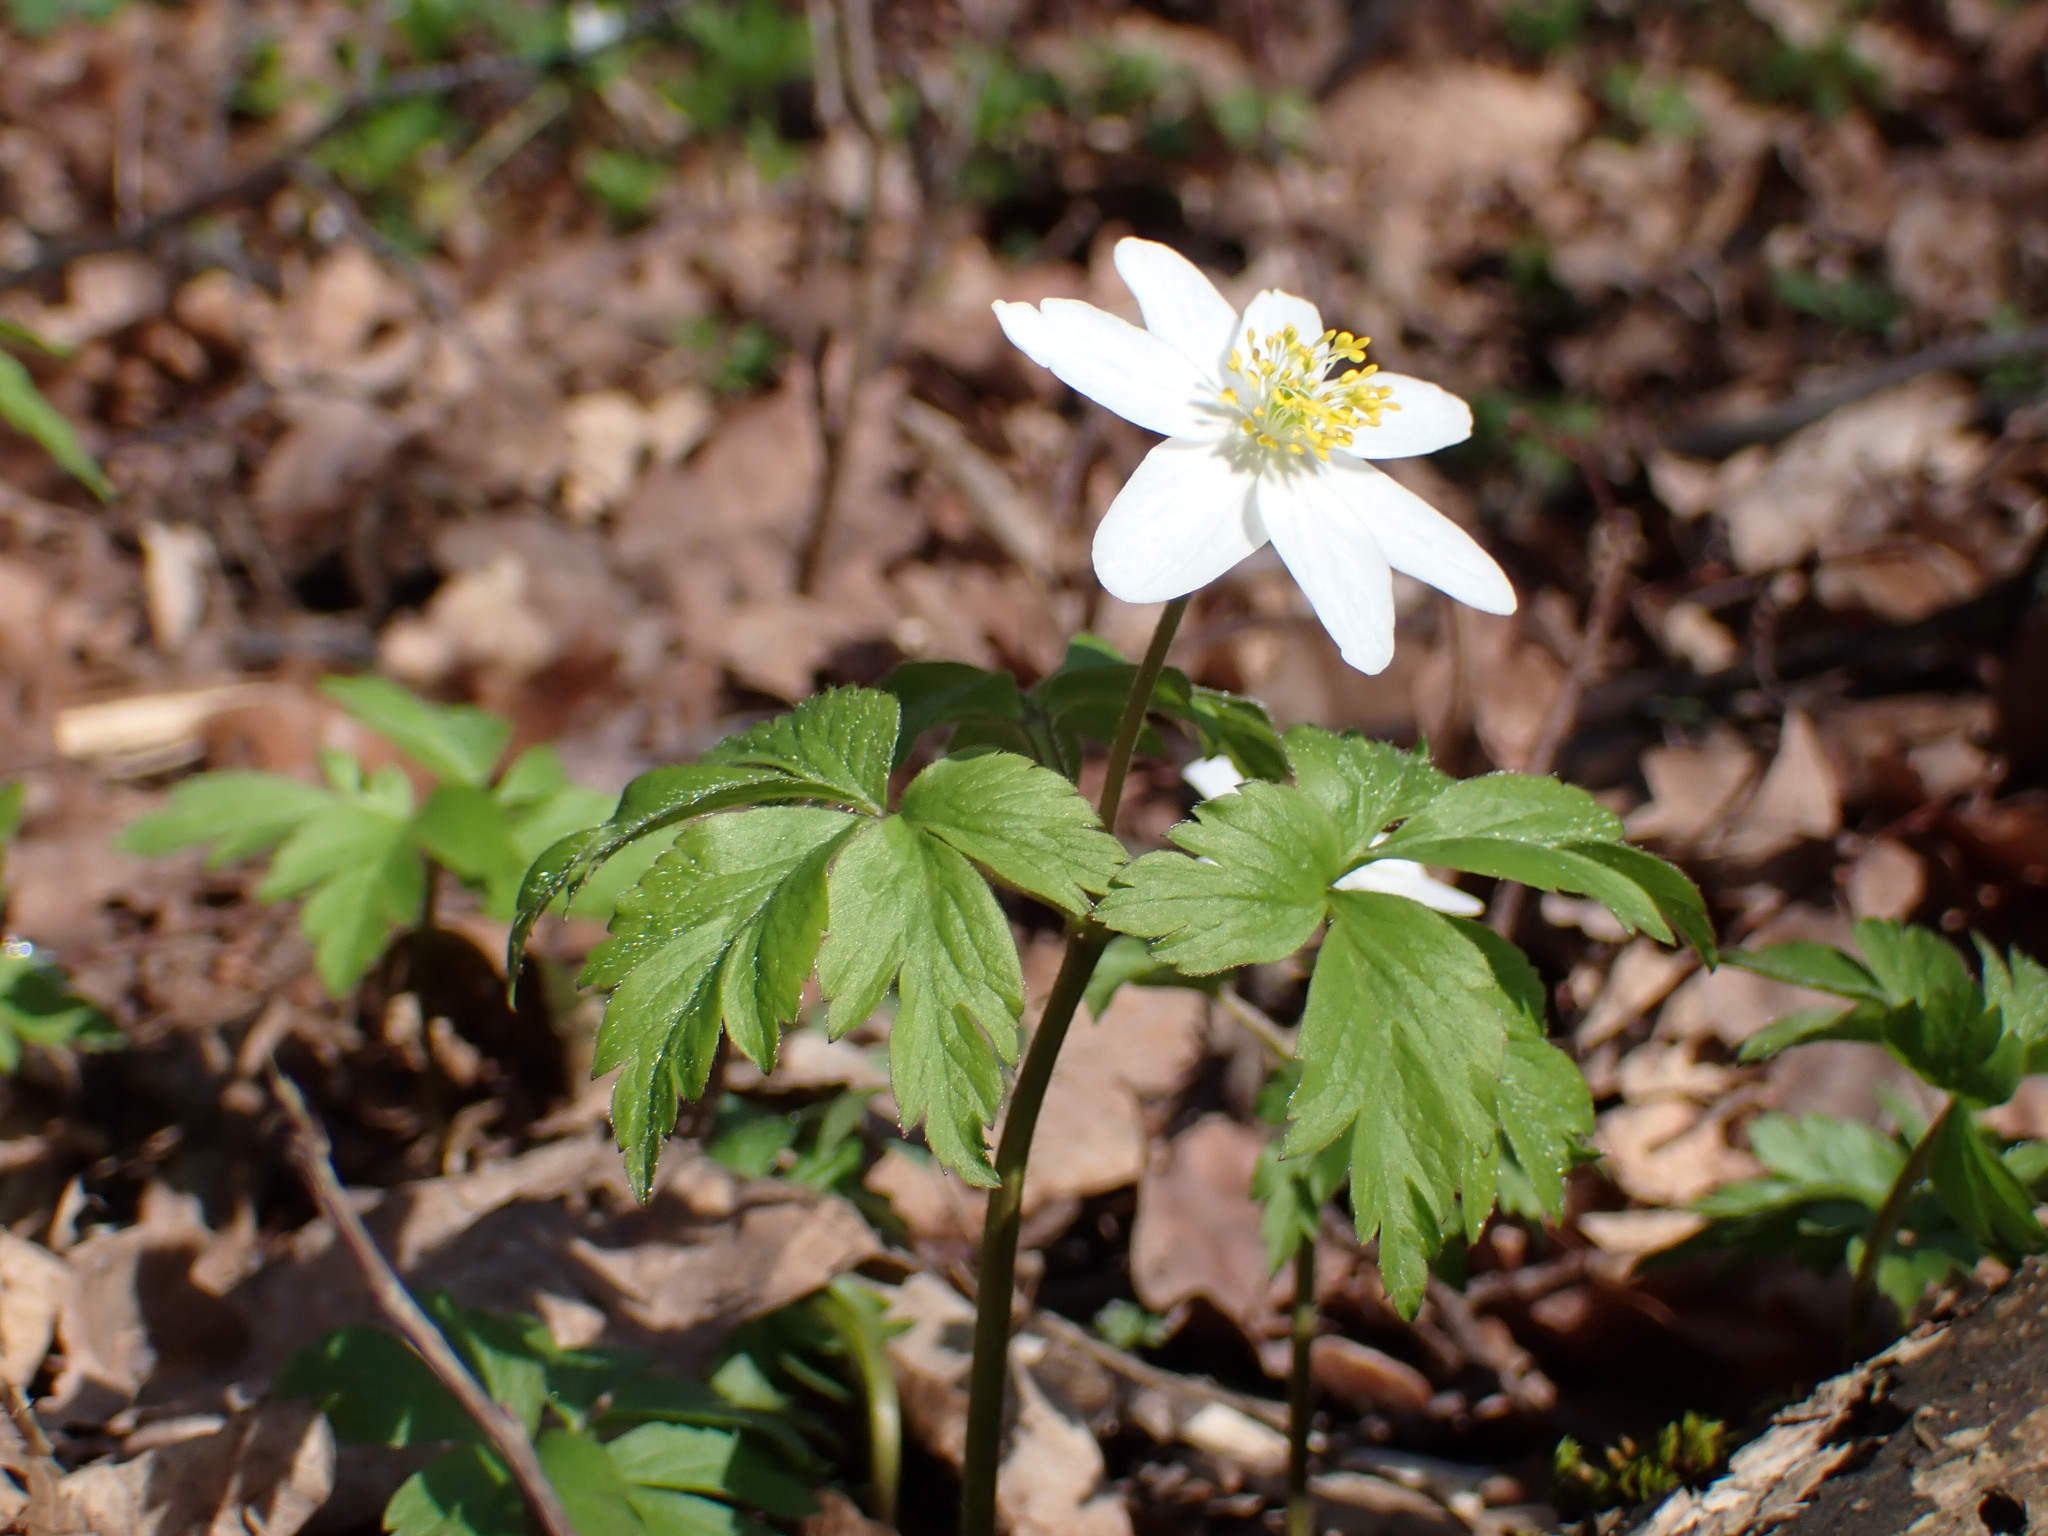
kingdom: Plantae
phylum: Tracheophyta
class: Magnoliopsida
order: Ranunculales
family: Ranunculaceae
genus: Anemone
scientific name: Anemone nemorosa
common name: Wood anemone
